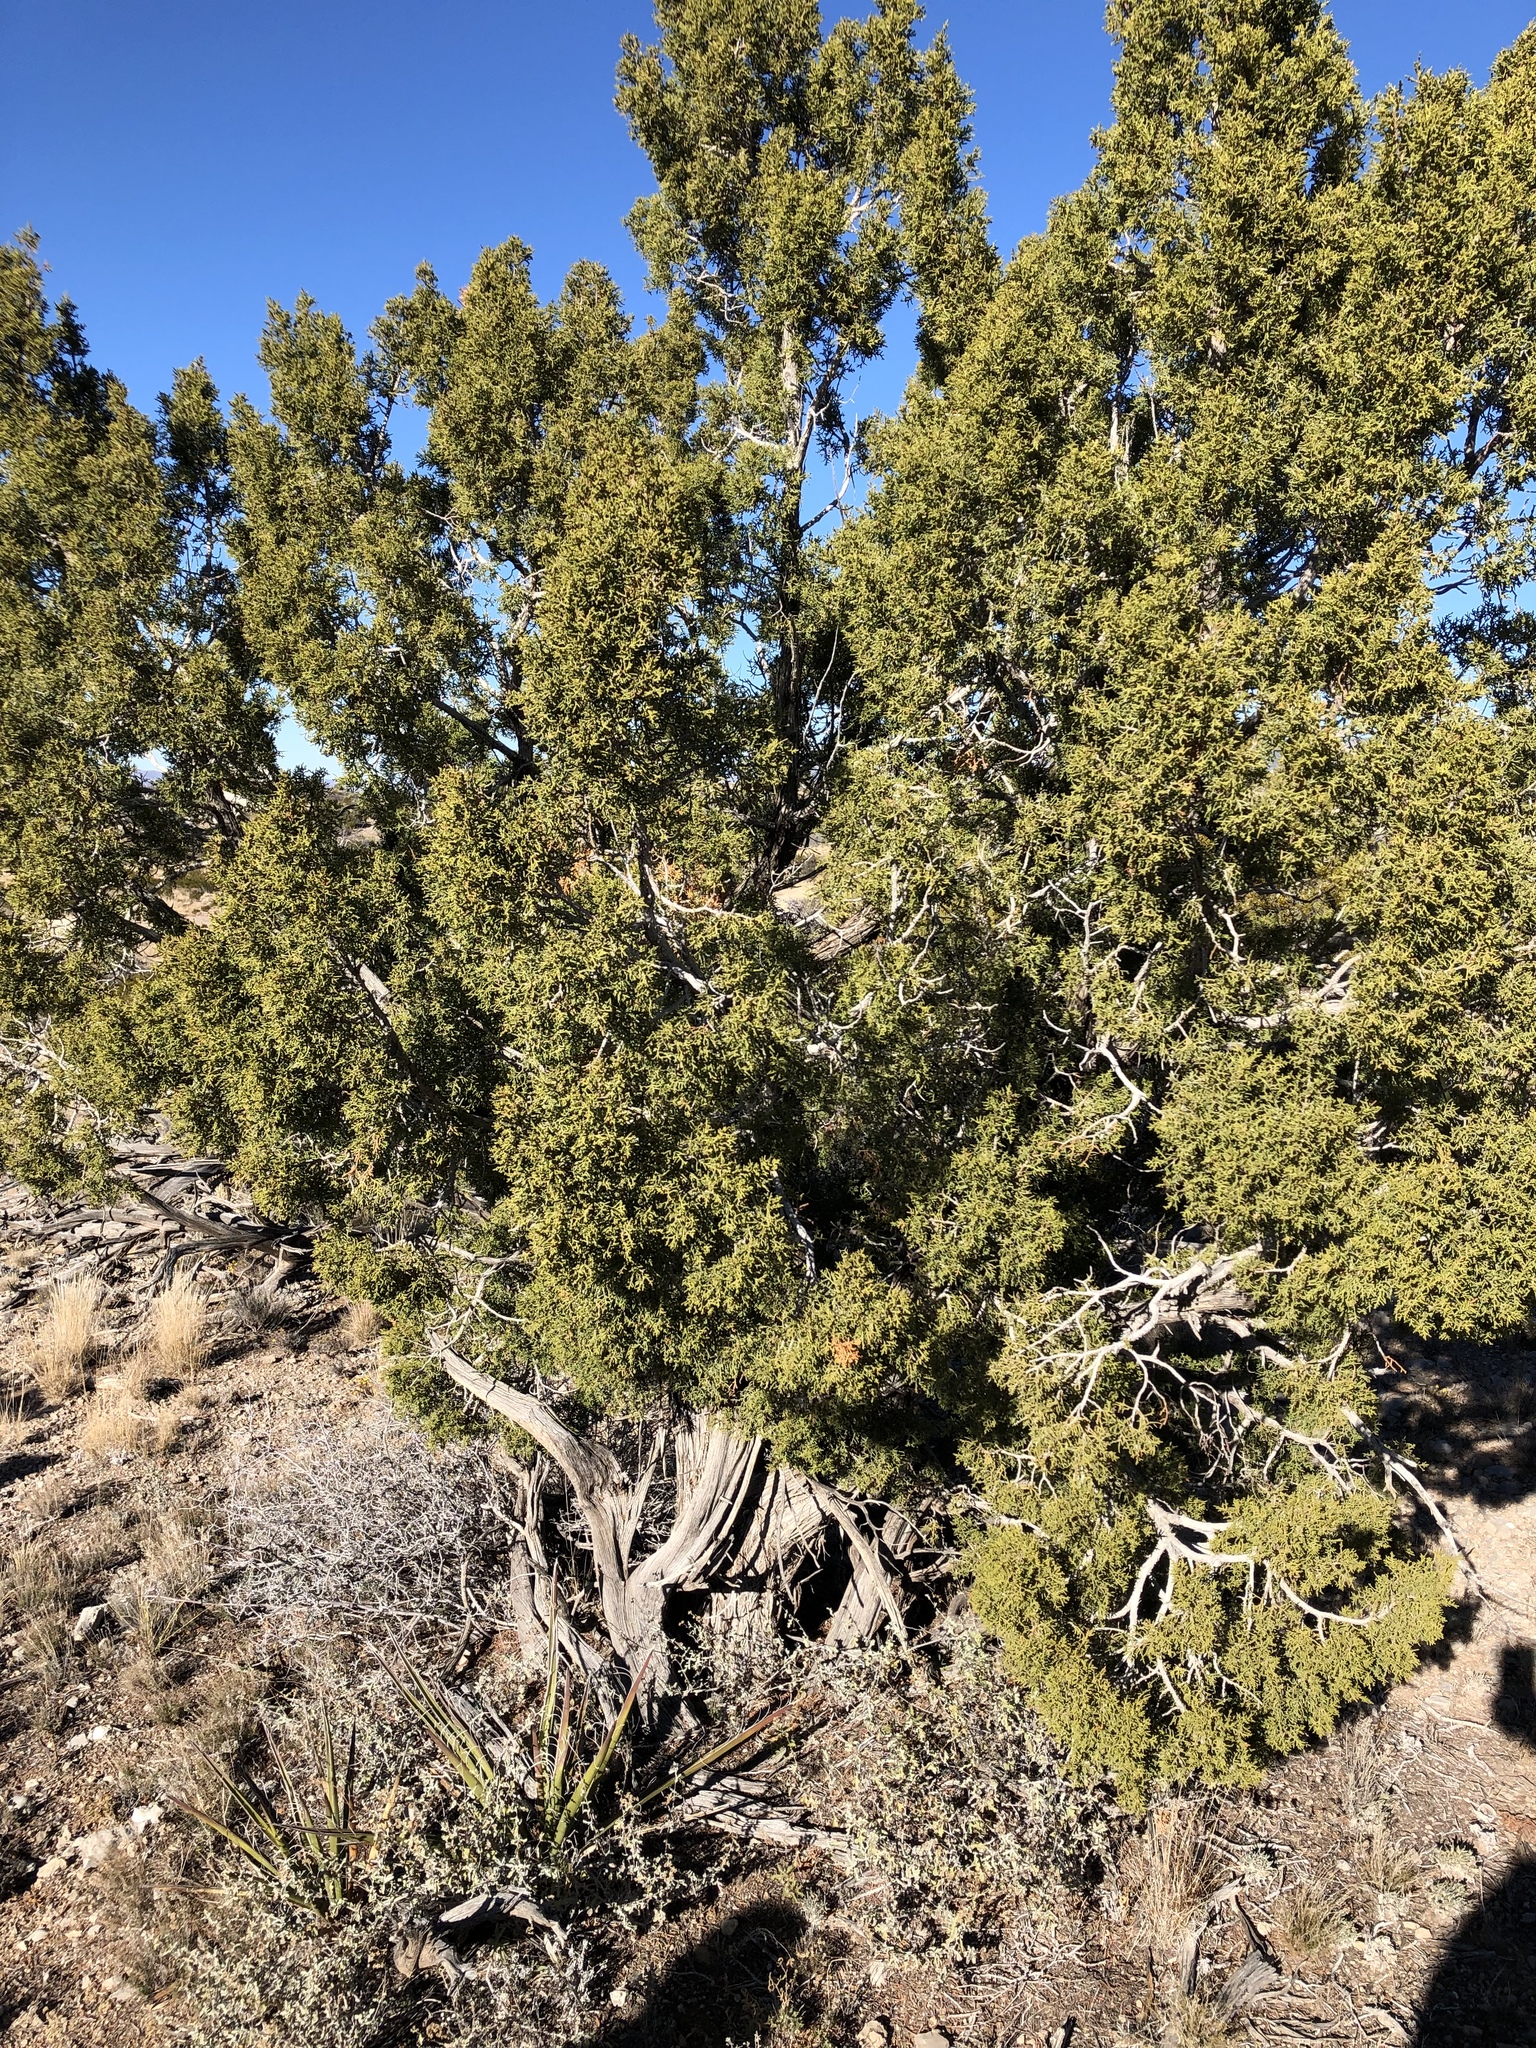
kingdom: Plantae
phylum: Tracheophyta
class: Pinopsida
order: Pinales
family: Cupressaceae
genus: Juniperus
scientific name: Juniperus monosperma
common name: One-seed juniper
